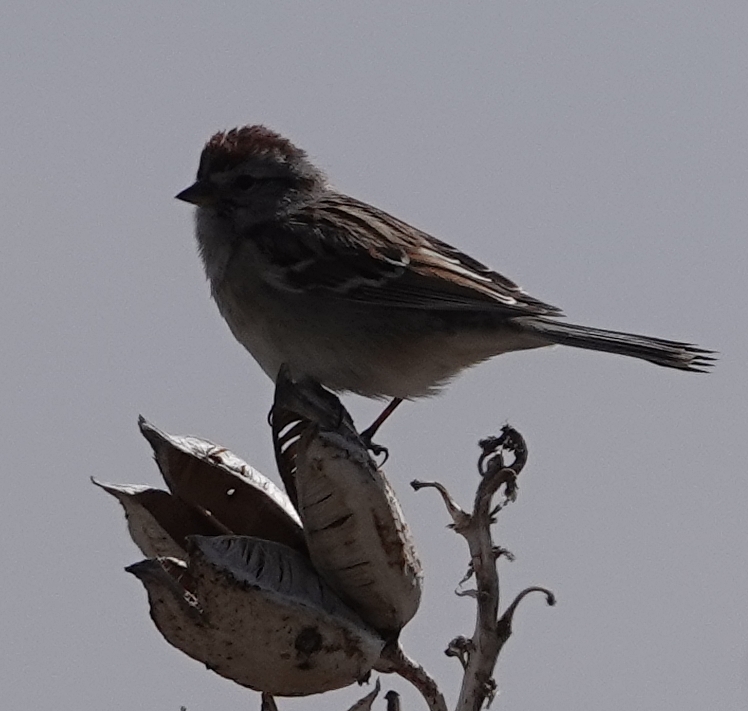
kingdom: Animalia
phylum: Chordata
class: Aves
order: Passeriformes
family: Passerellidae
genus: Spizelloides
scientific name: Spizelloides arborea
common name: American tree sparrow
